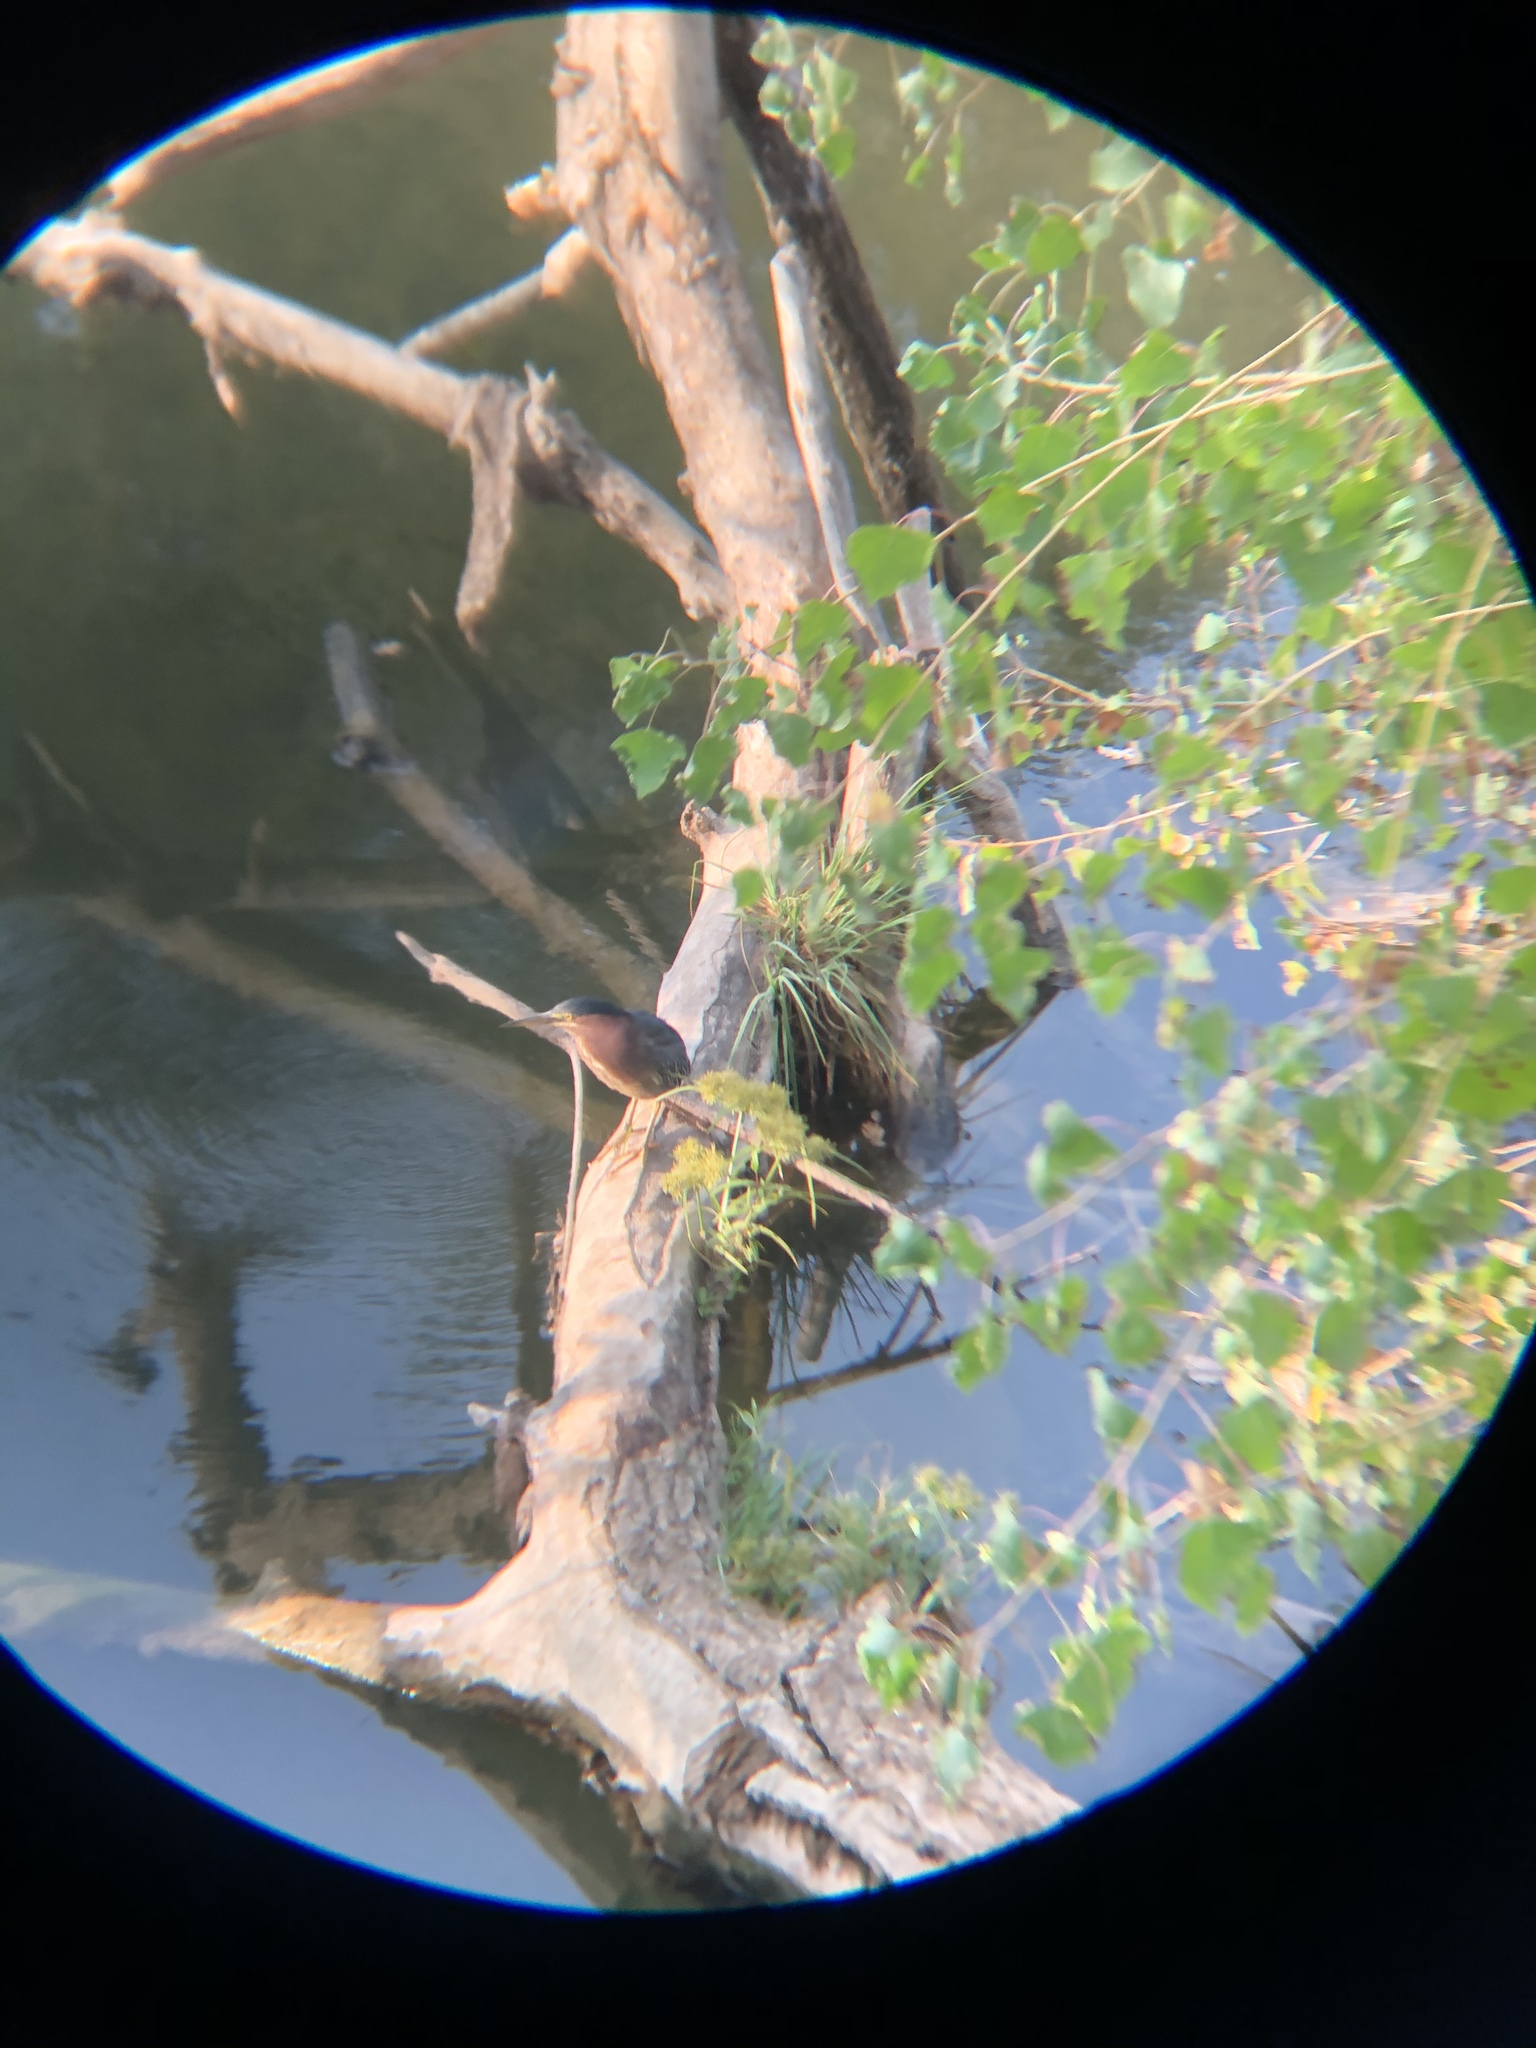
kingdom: Animalia
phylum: Chordata
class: Aves
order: Pelecaniformes
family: Ardeidae
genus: Butorides
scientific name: Butorides virescens
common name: Green heron
